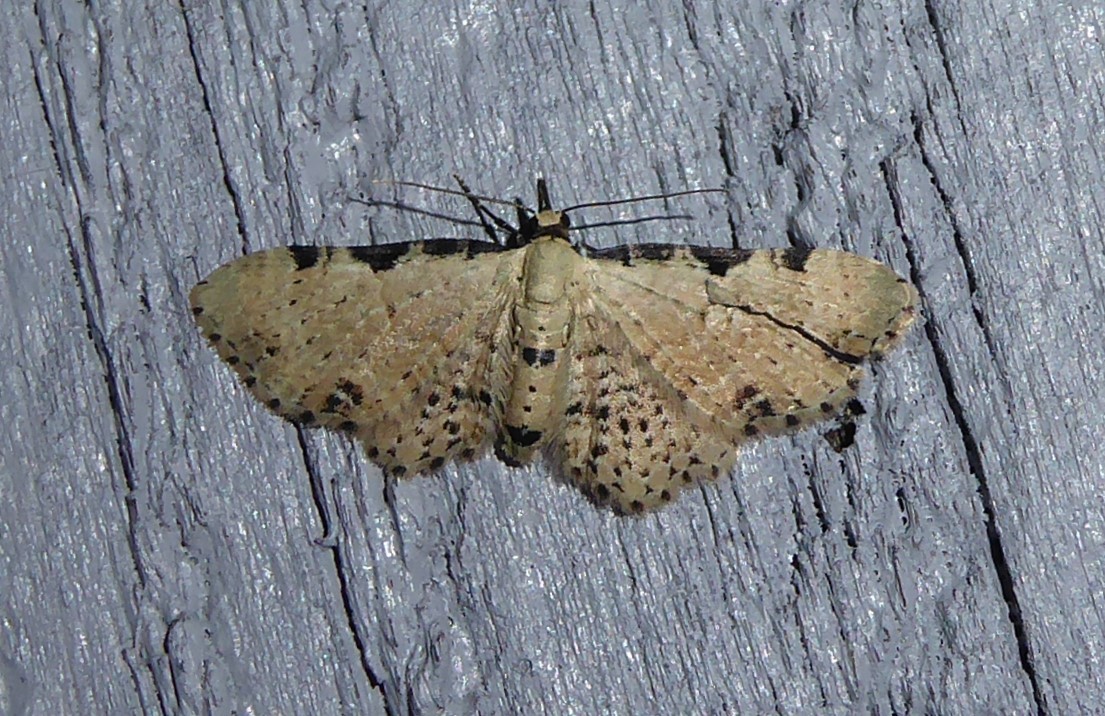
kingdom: Animalia
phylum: Arthropoda
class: Insecta
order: Lepidoptera
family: Geometridae
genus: Pasiphila
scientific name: Pasiphila fumipalpata
